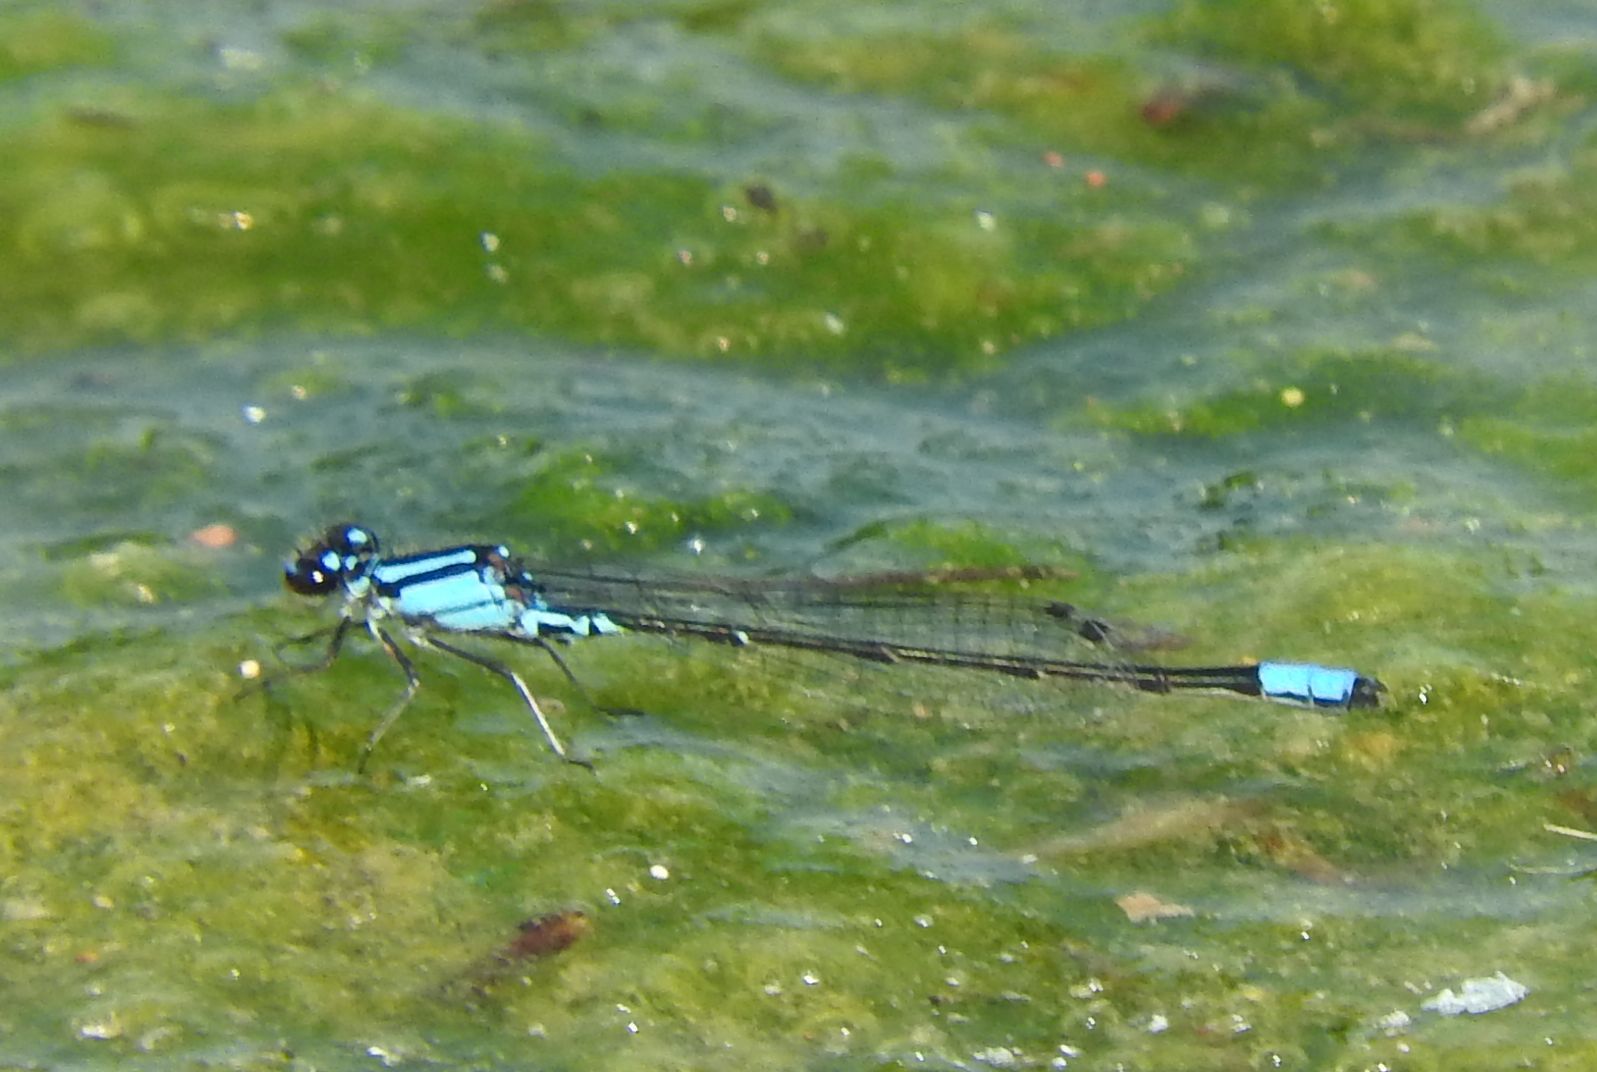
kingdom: Animalia
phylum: Arthropoda
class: Insecta
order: Odonata
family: Coenagrionidae
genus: Enallagma
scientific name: Enallagma geminatum
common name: Skimming bluet
